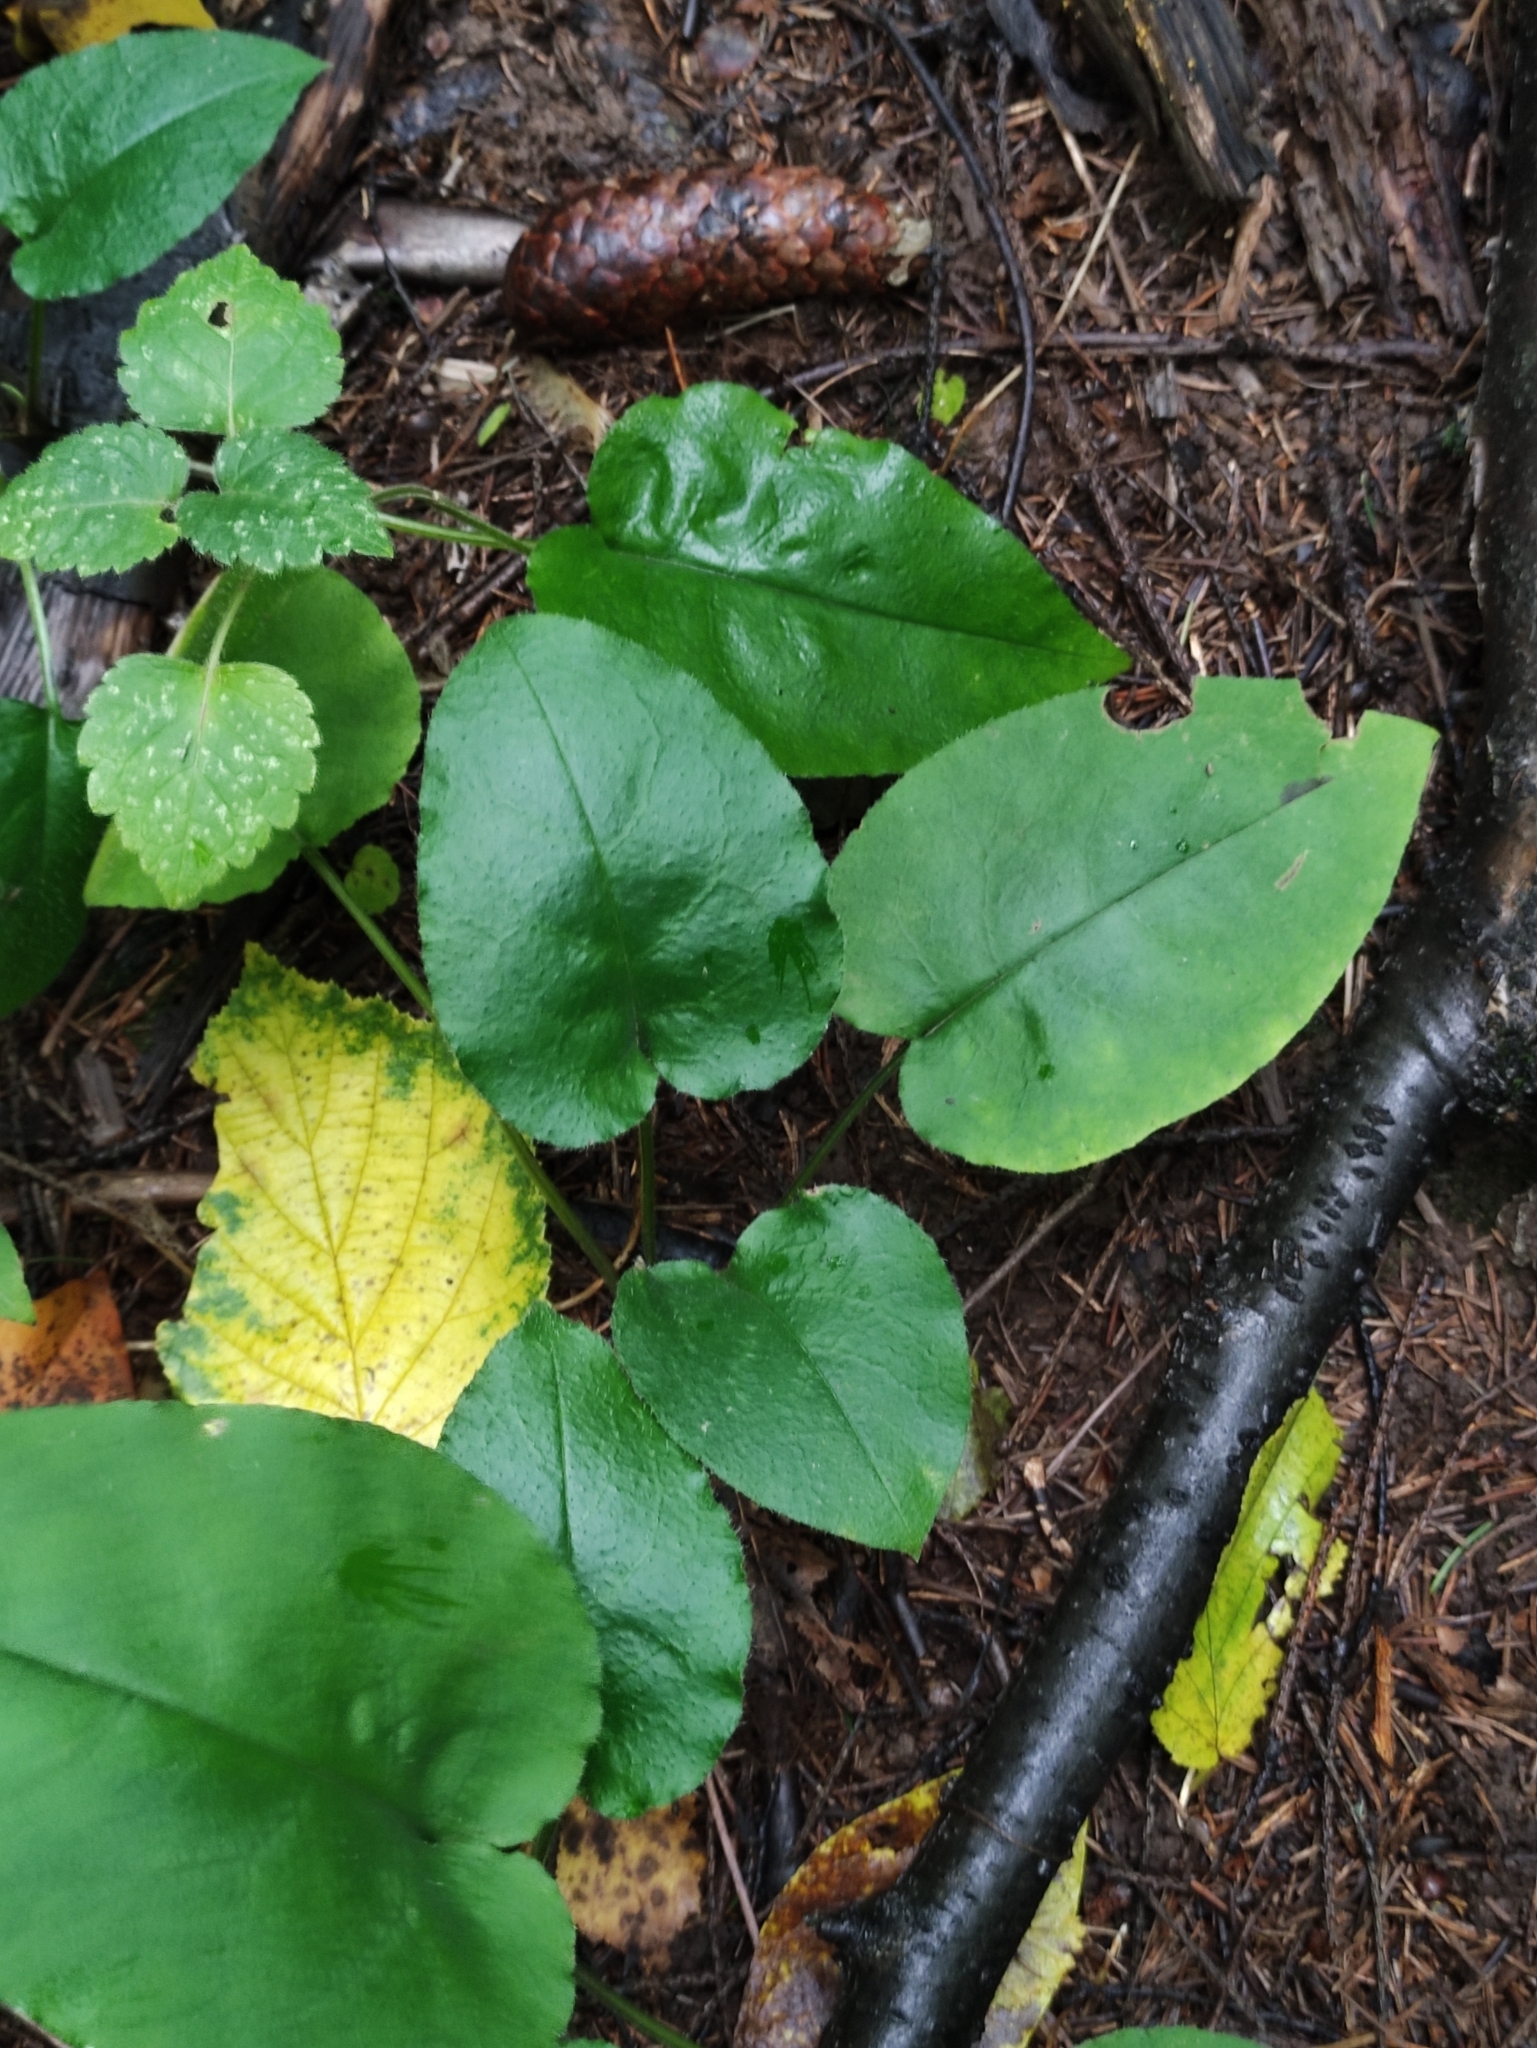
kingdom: Plantae
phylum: Tracheophyta
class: Magnoliopsida
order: Boraginales
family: Boraginaceae
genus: Pulmonaria
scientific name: Pulmonaria obscura
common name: Suffolk lungwort
